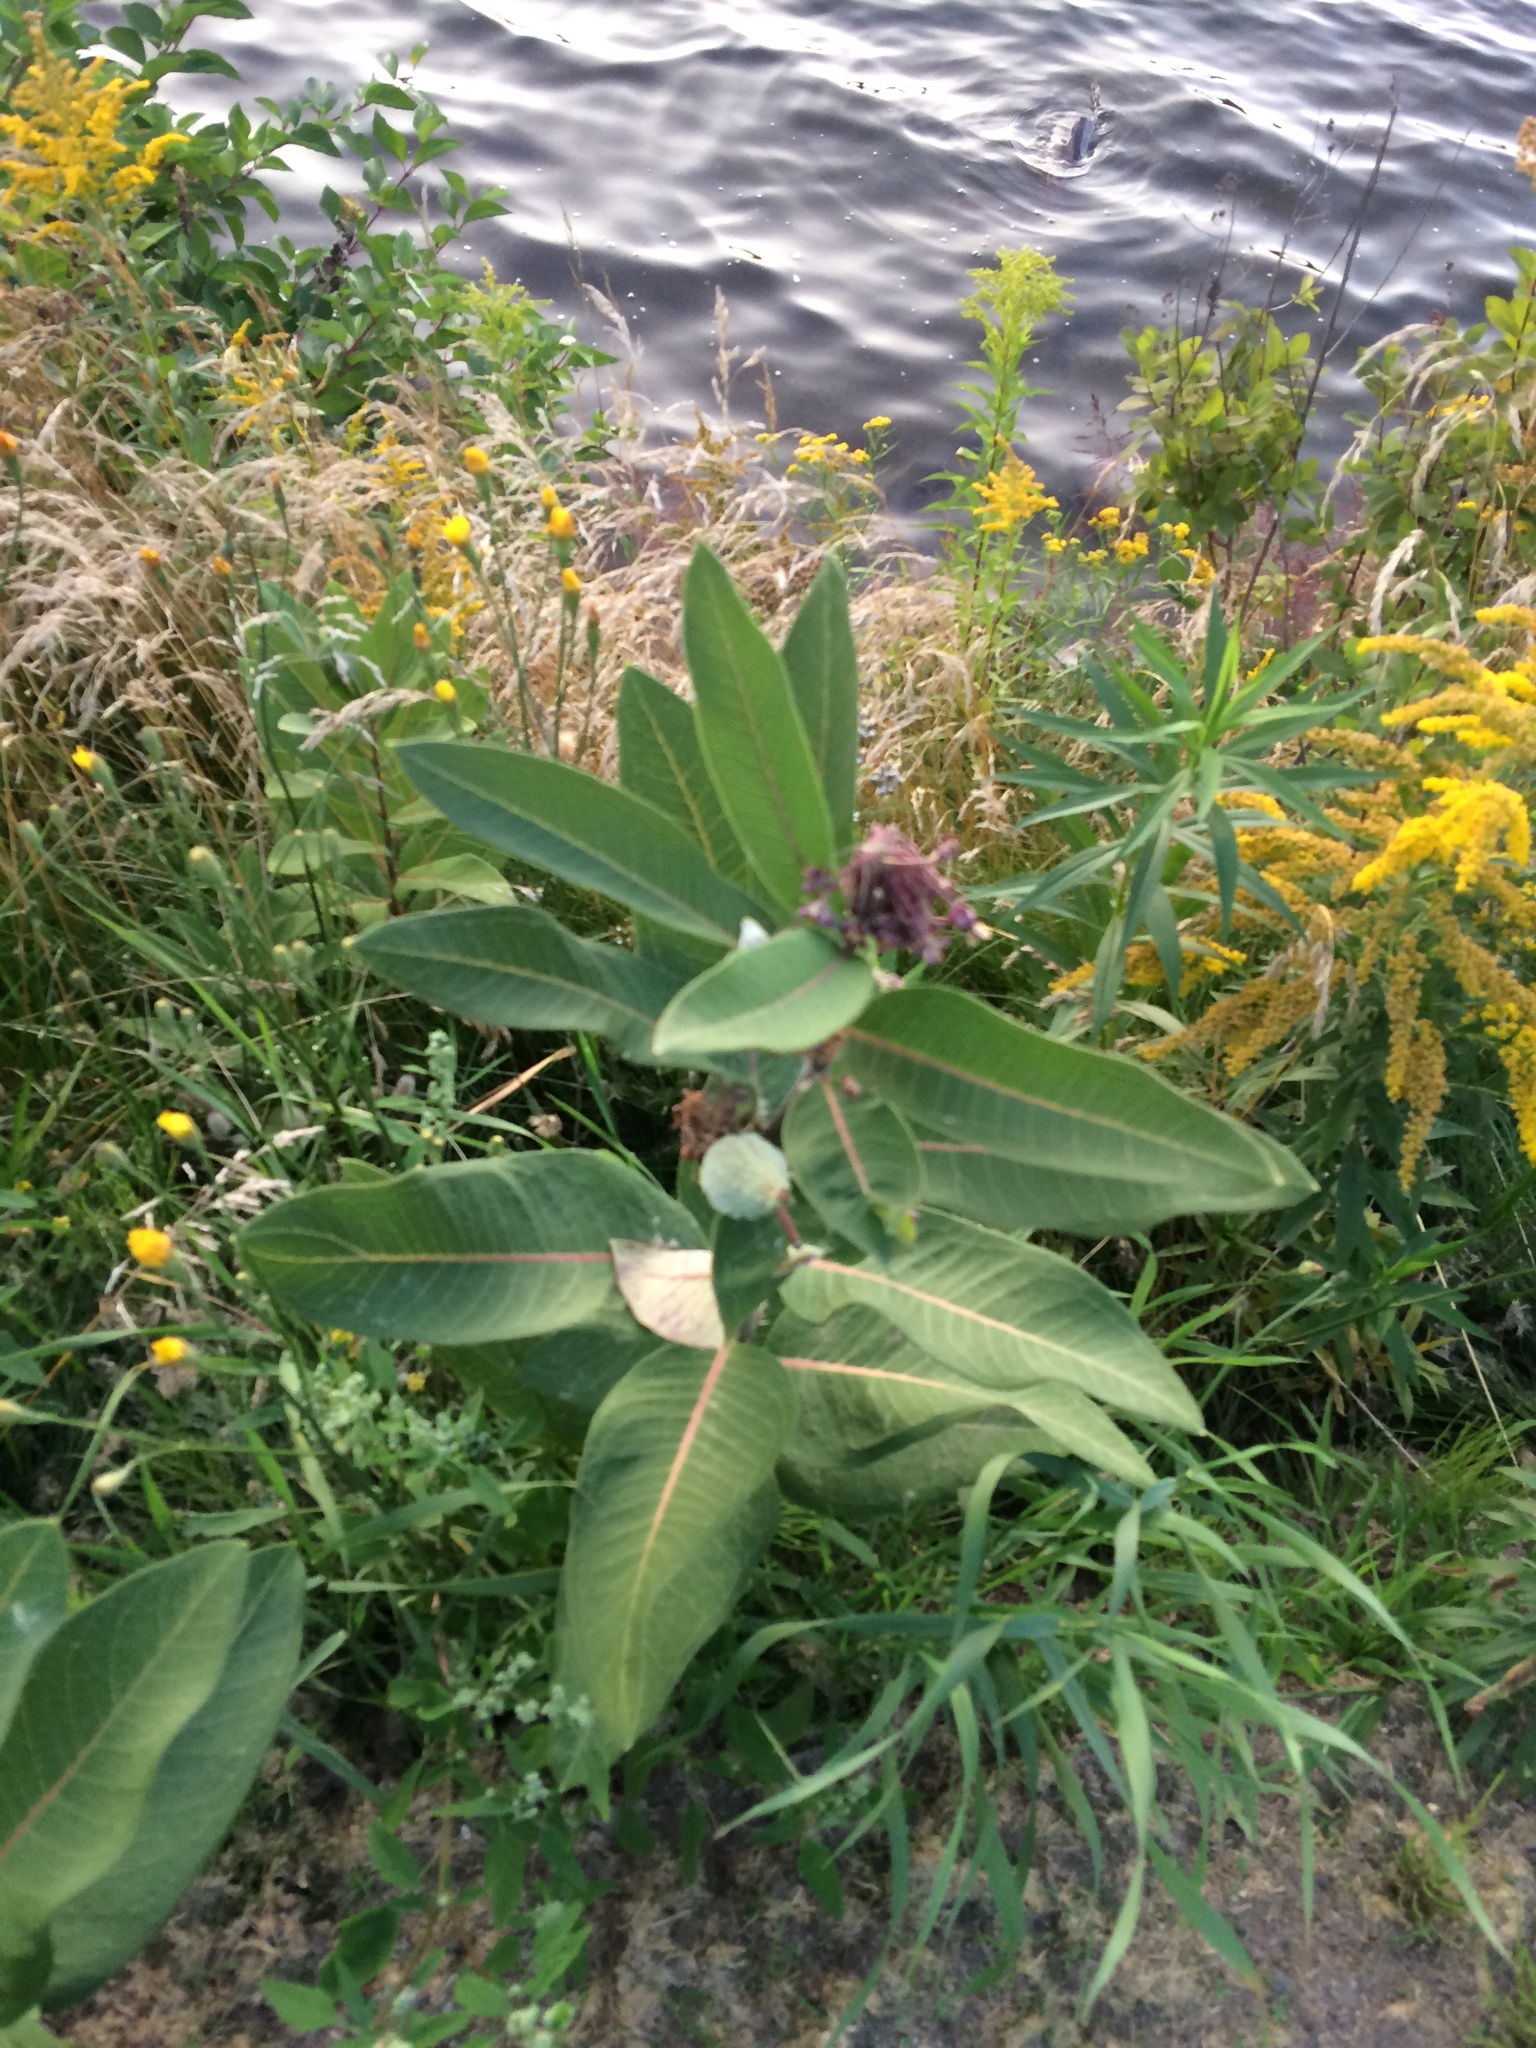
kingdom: Plantae
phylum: Tracheophyta
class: Magnoliopsida
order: Gentianales
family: Apocynaceae
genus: Asclepias
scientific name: Asclepias syriaca
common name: Common milkweed
